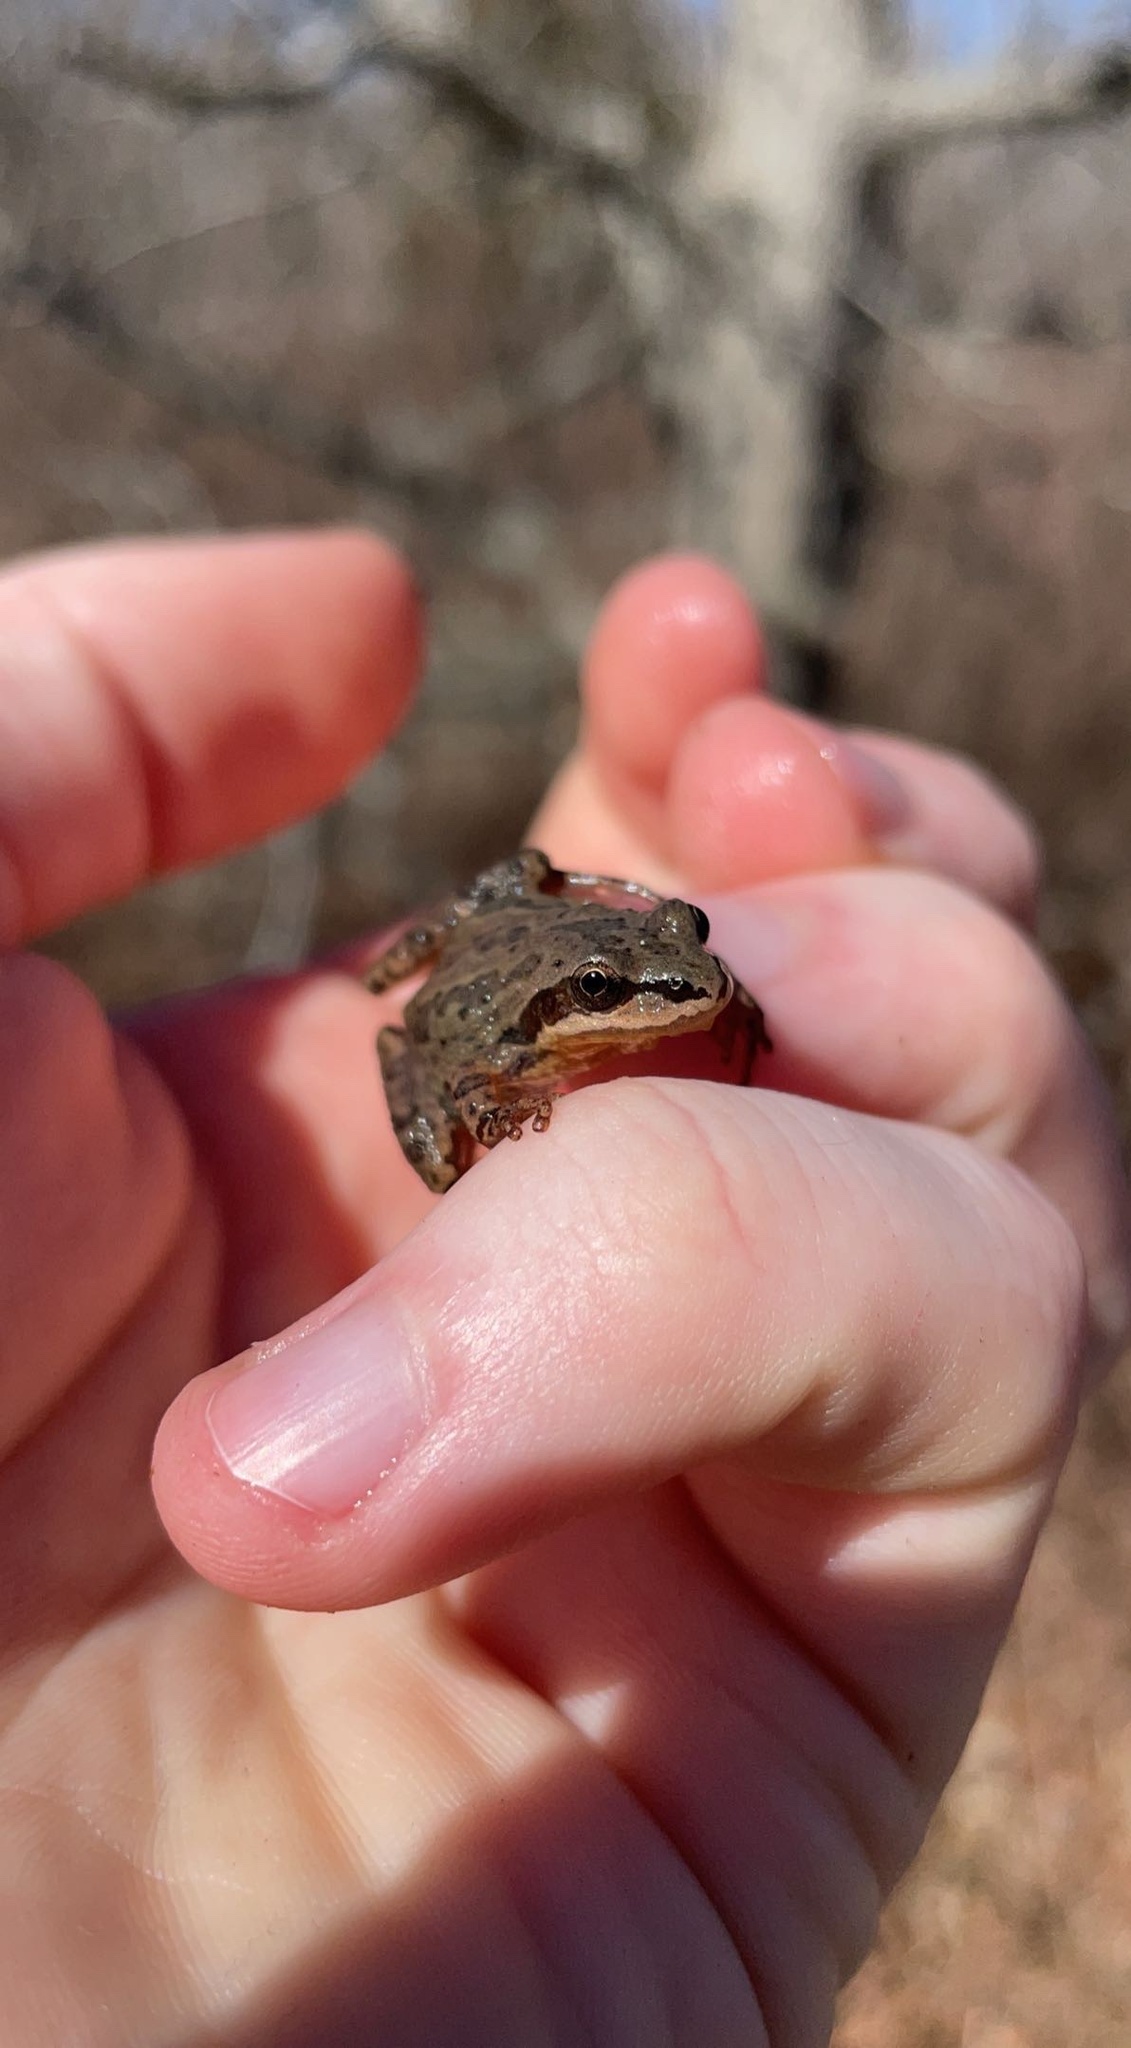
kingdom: Animalia
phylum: Chordata
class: Amphibia
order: Anura
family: Hylidae
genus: Pseudacris
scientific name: Pseudacris feriarum
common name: Upland chorus frog
